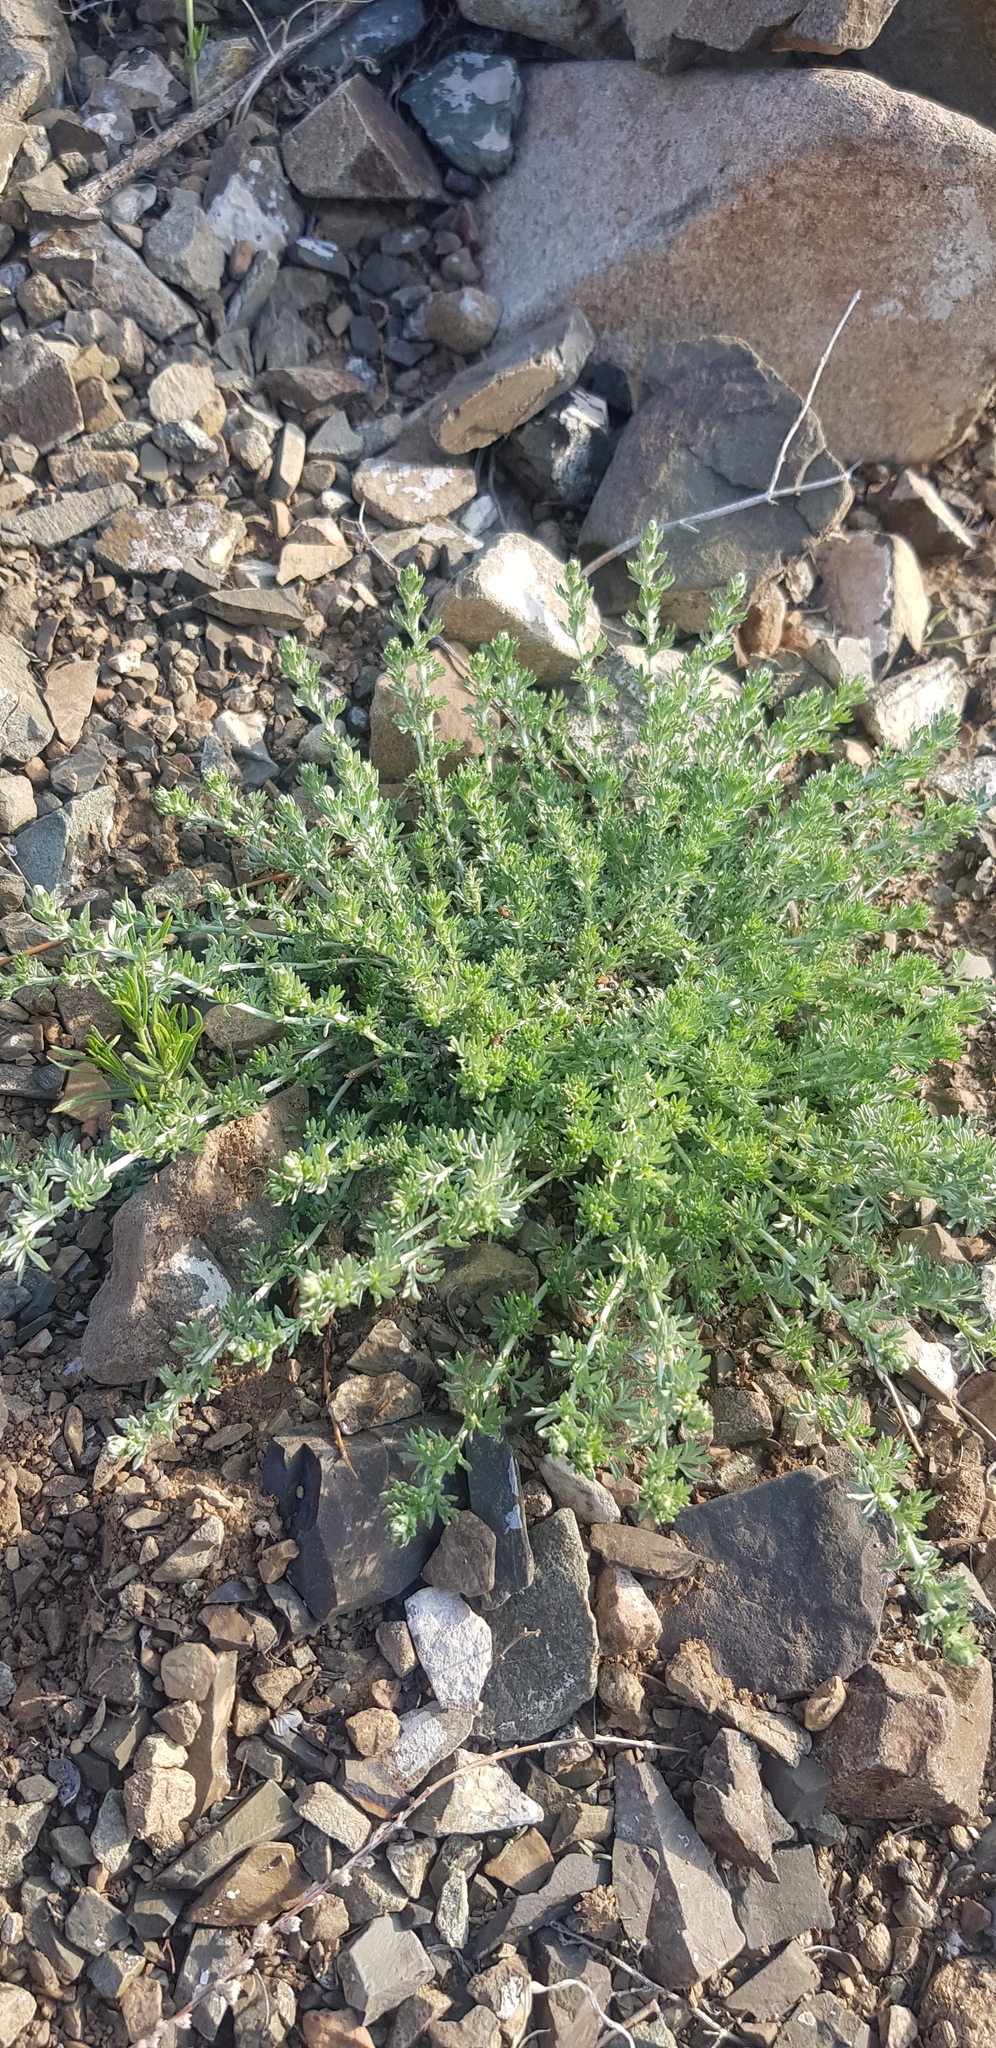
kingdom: Plantae
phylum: Tracheophyta
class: Magnoliopsida
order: Asterales
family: Asteraceae
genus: Artemisia
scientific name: Artemisia frigida
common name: Prairie sagewort
